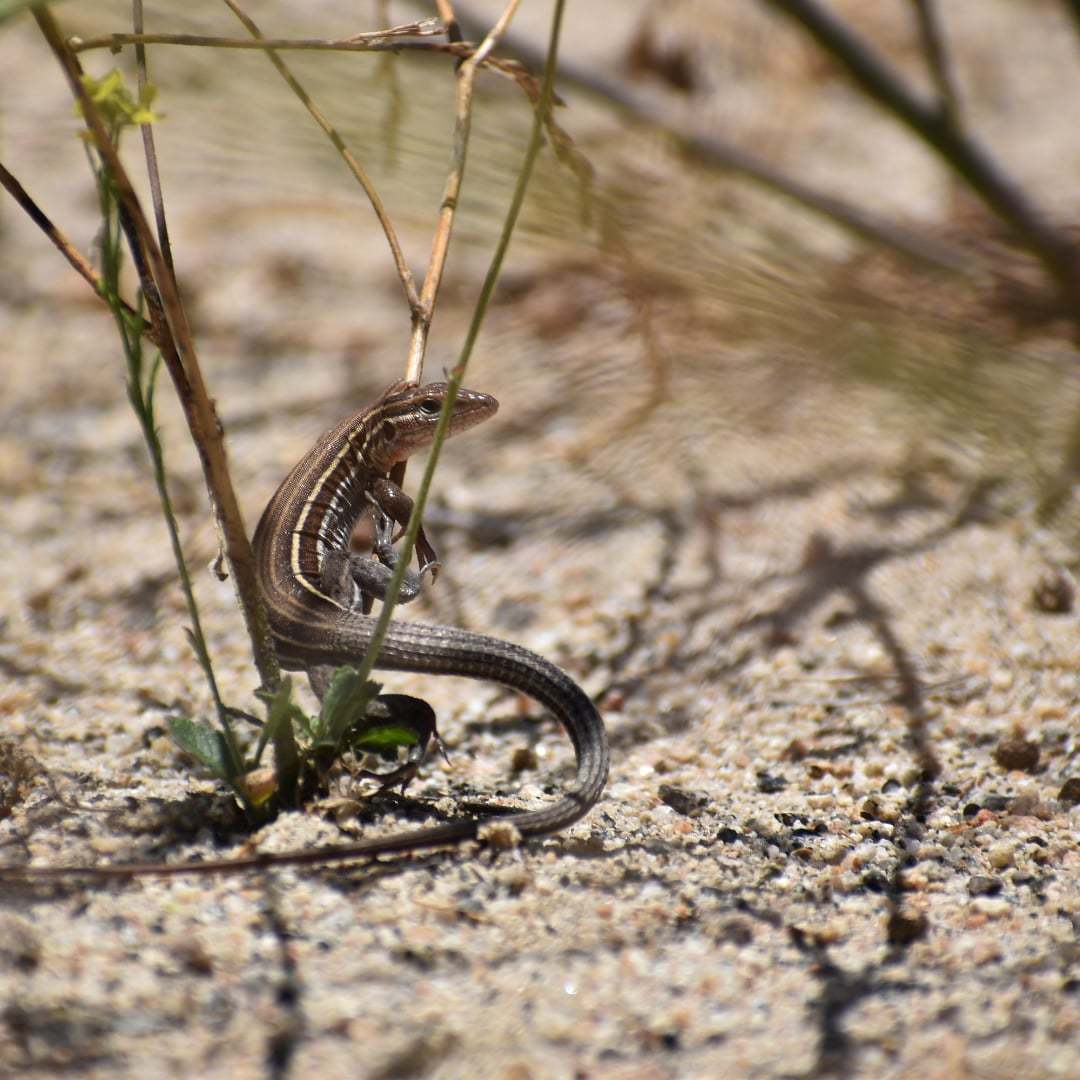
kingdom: Animalia
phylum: Chordata
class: Squamata
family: Teiidae
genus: Aspidoscelis
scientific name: Aspidoscelis hyperythrus
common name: Orange-throated race-runner
